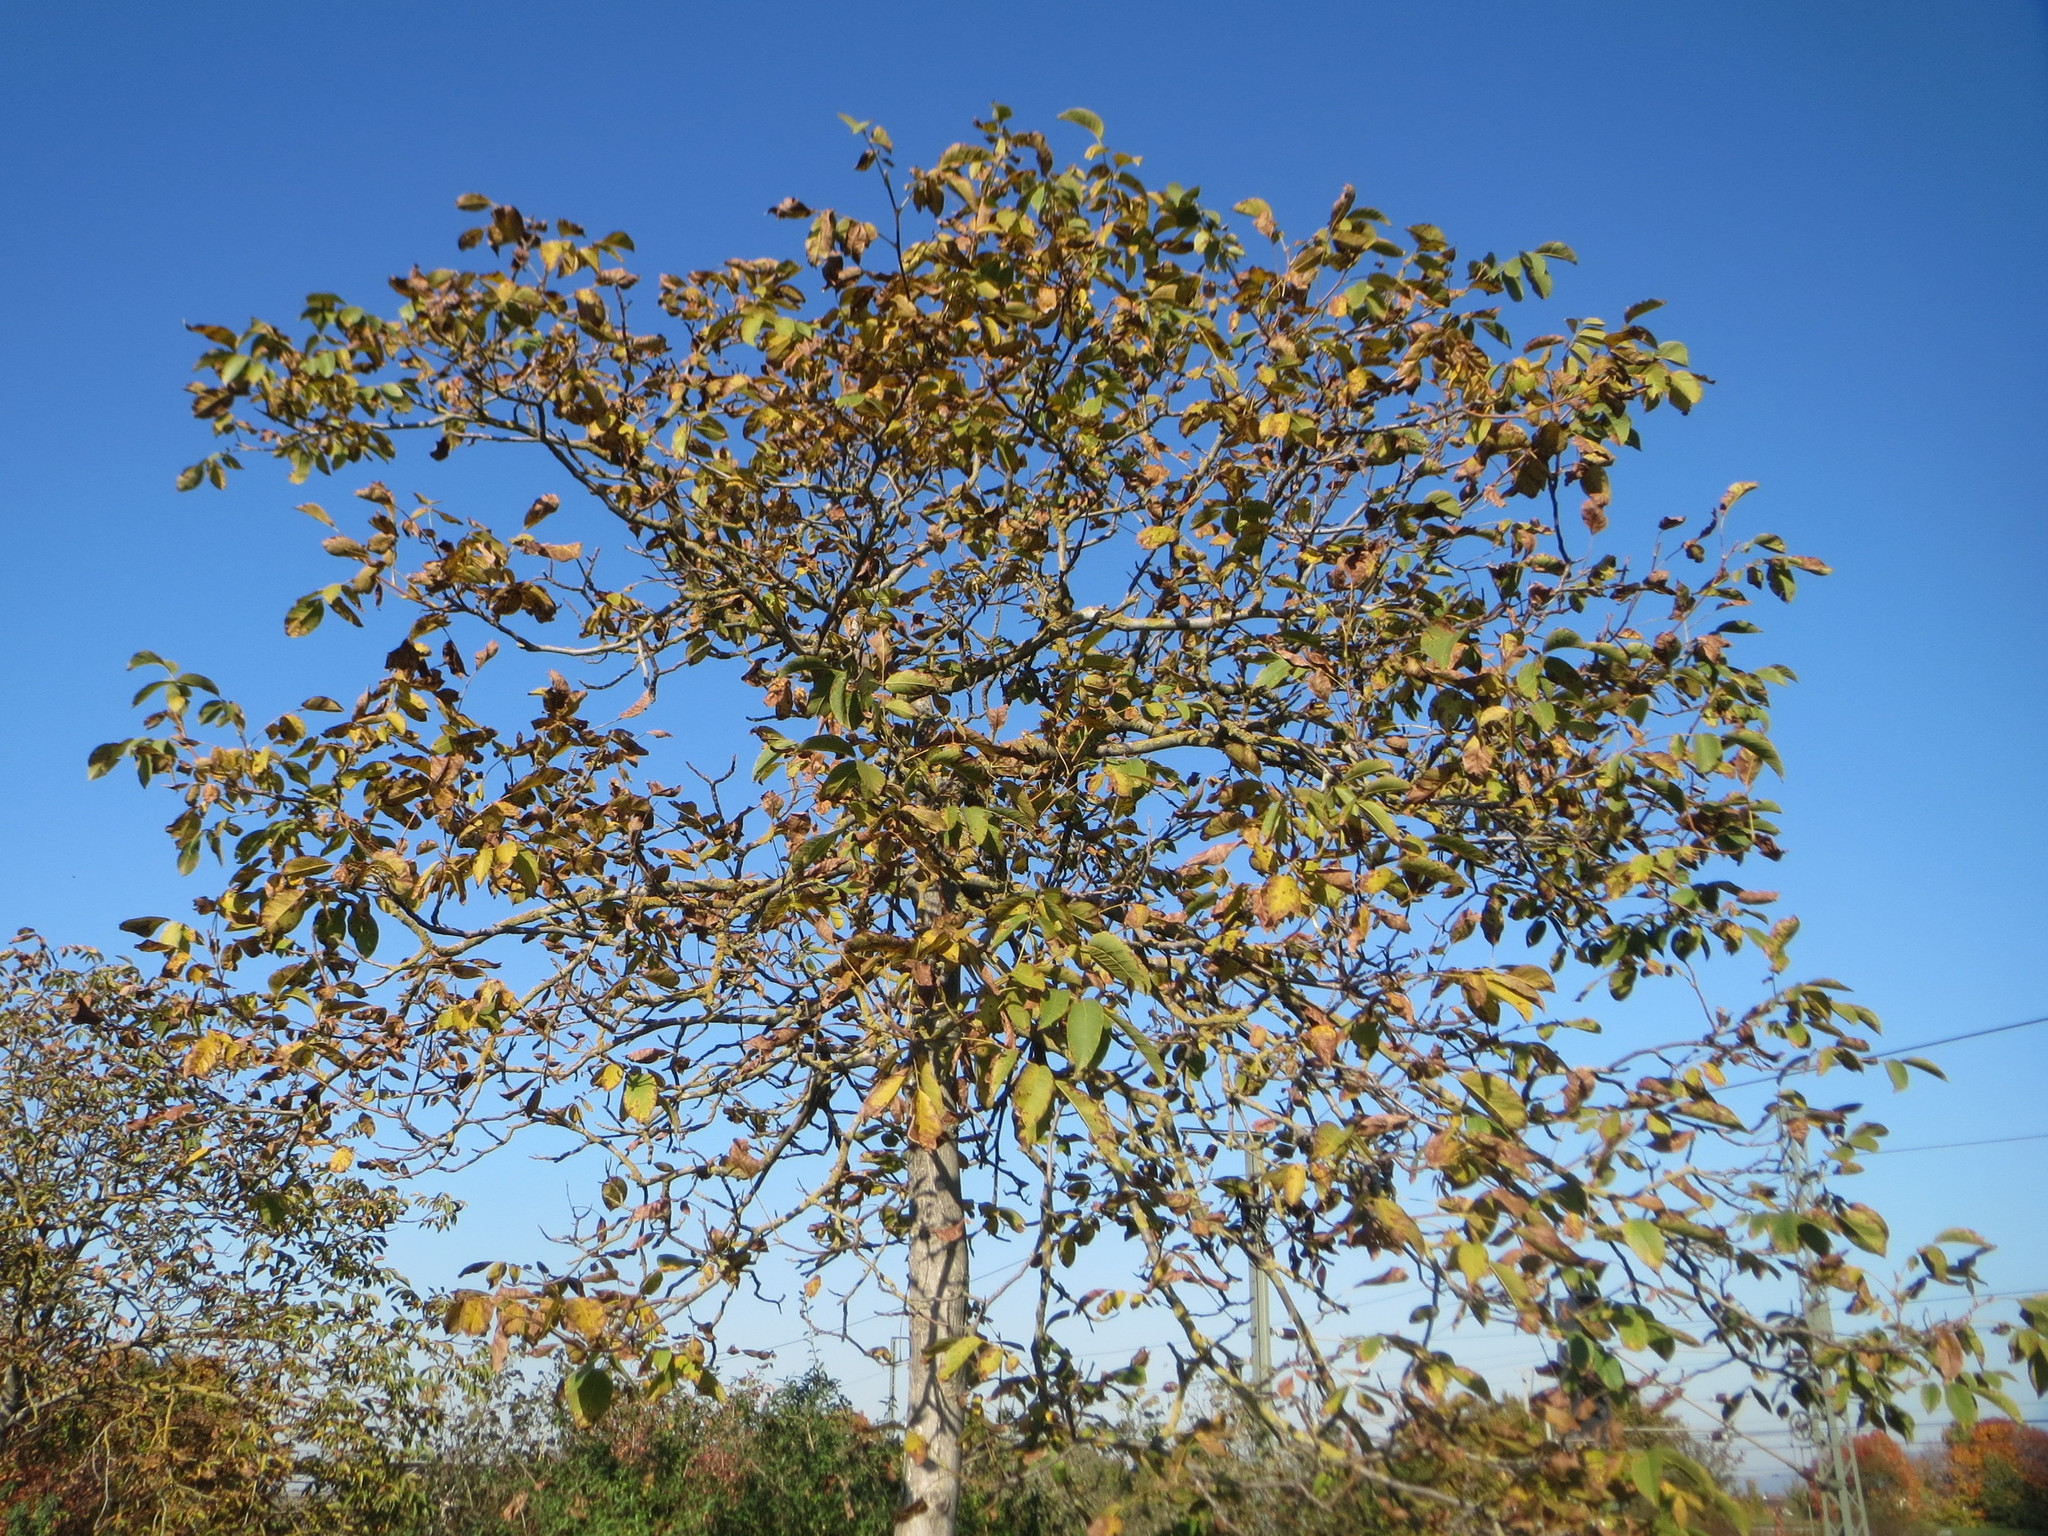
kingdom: Plantae
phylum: Tracheophyta
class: Magnoliopsida
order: Fagales
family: Juglandaceae
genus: Juglans
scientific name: Juglans regia
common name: Walnut
